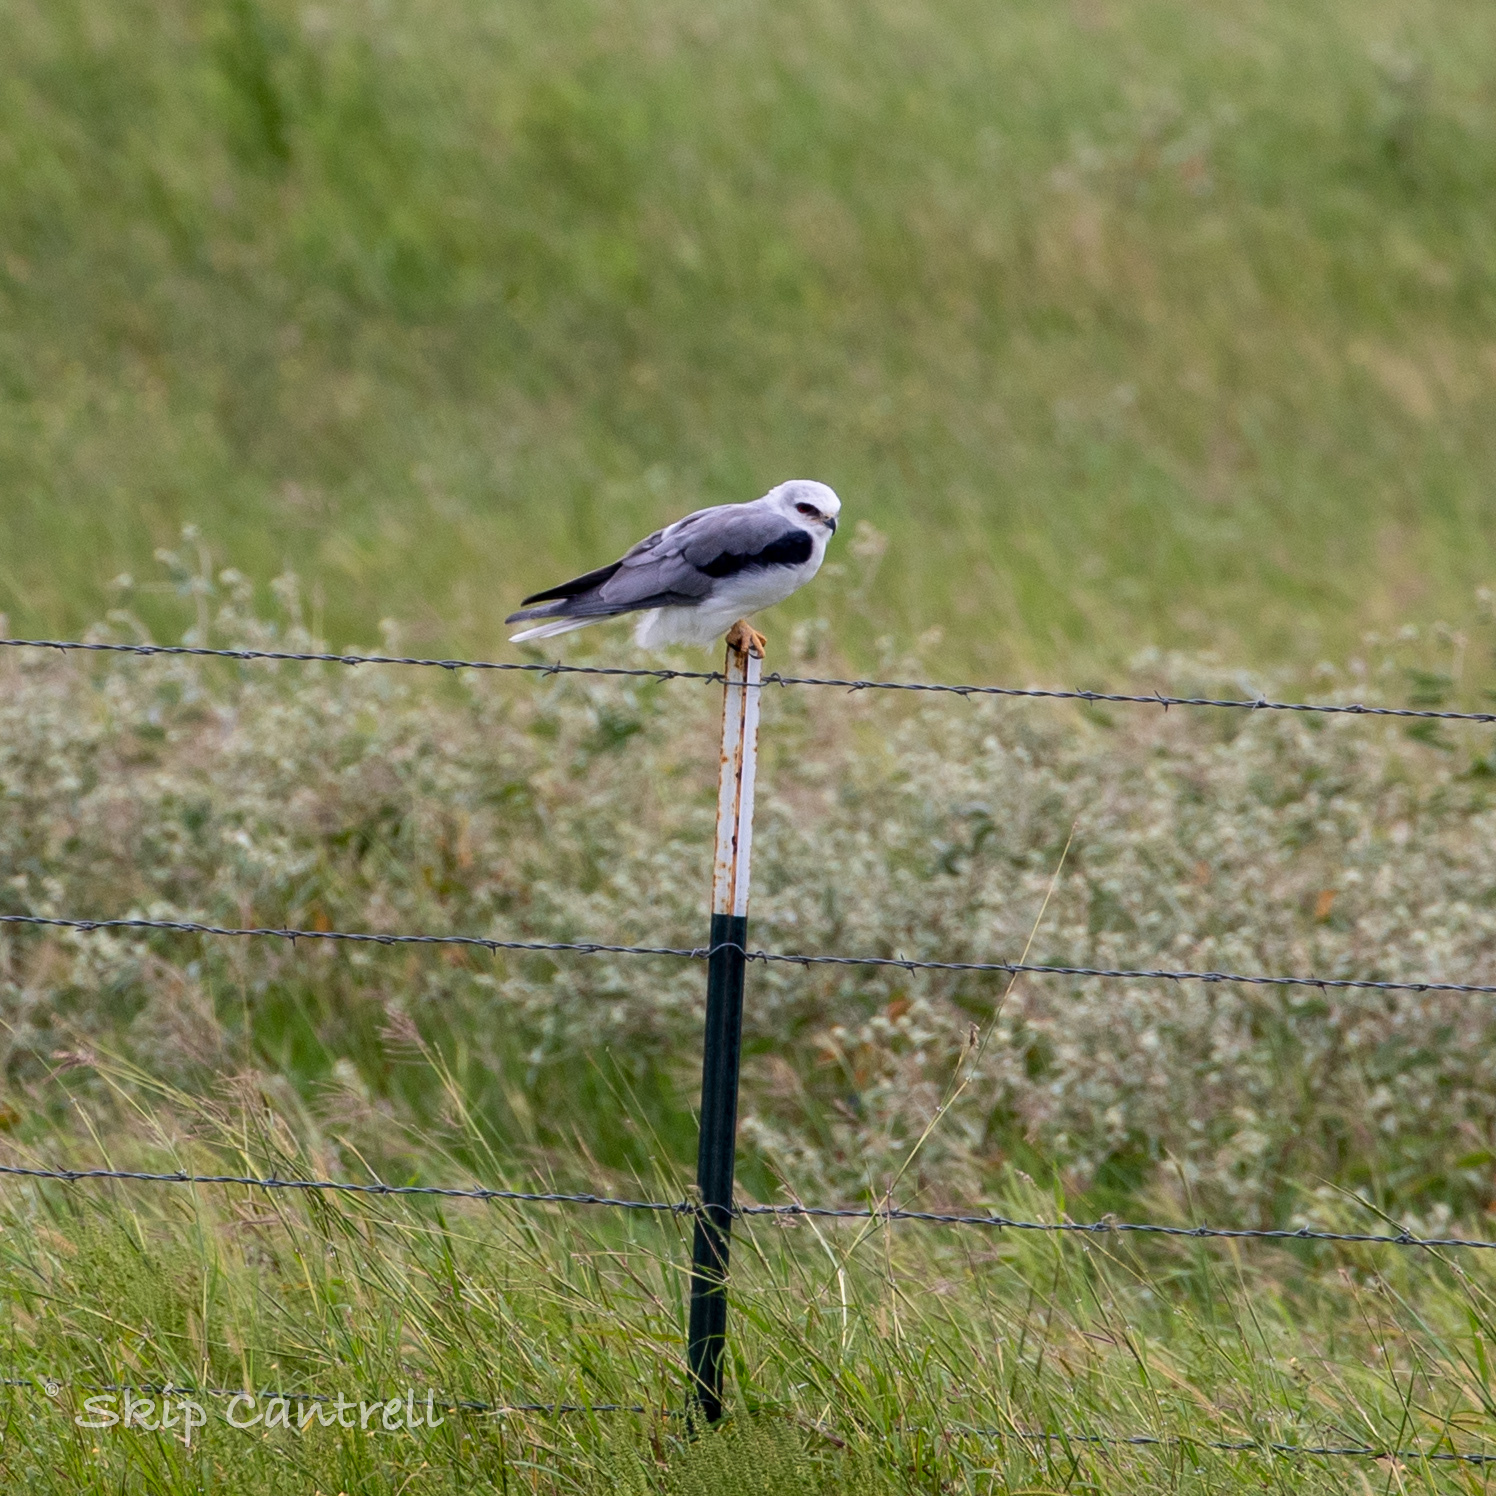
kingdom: Animalia
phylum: Chordata
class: Aves
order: Accipitriformes
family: Accipitridae
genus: Elanus
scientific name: Elanus leucurus
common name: White-tailed kite
